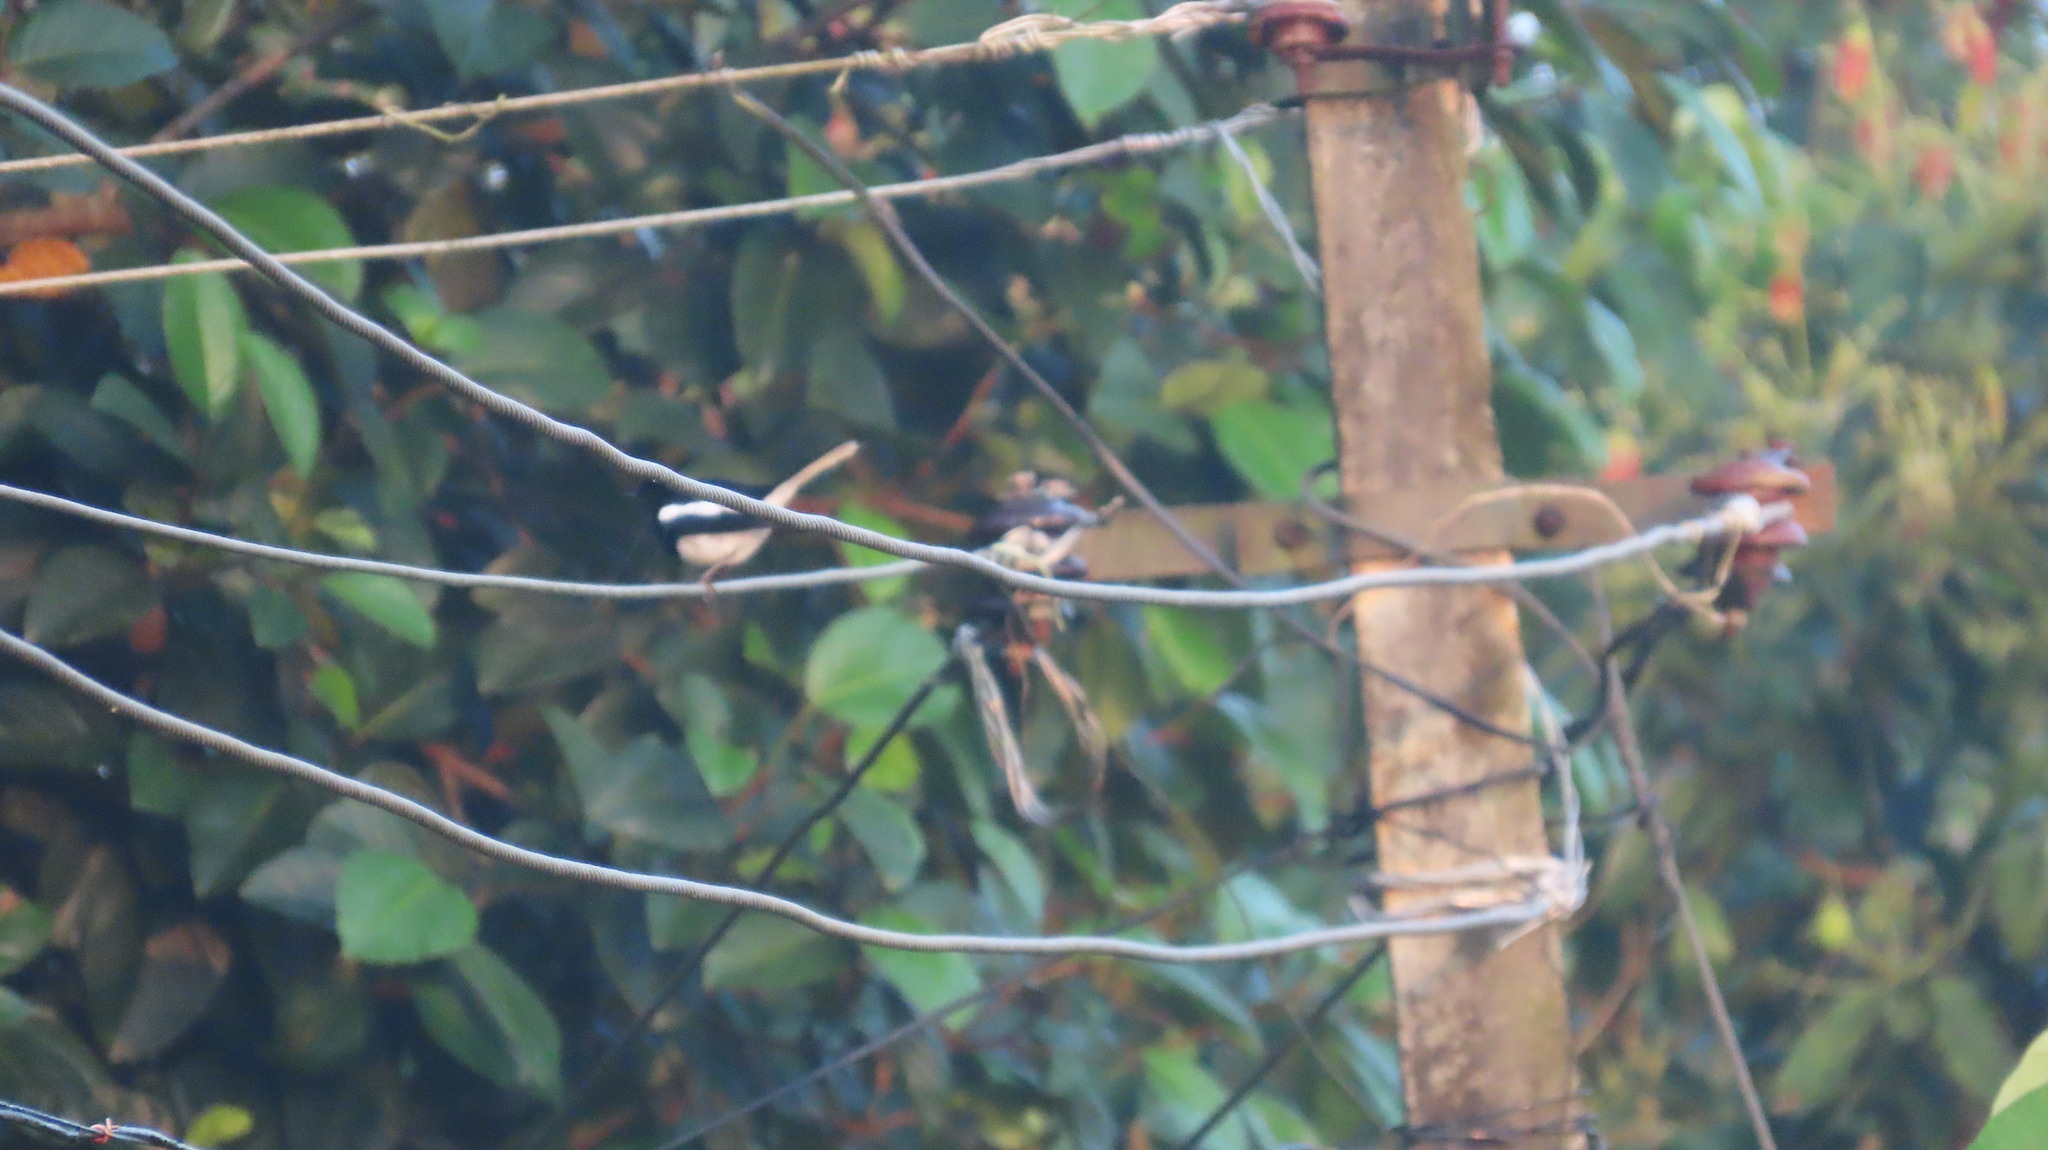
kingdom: Animalia
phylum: Chordata
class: Aves
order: Passeriformes
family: Muscicapidae
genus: Copsychus
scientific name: Copsychus saularis
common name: Oriental magpie-robin
